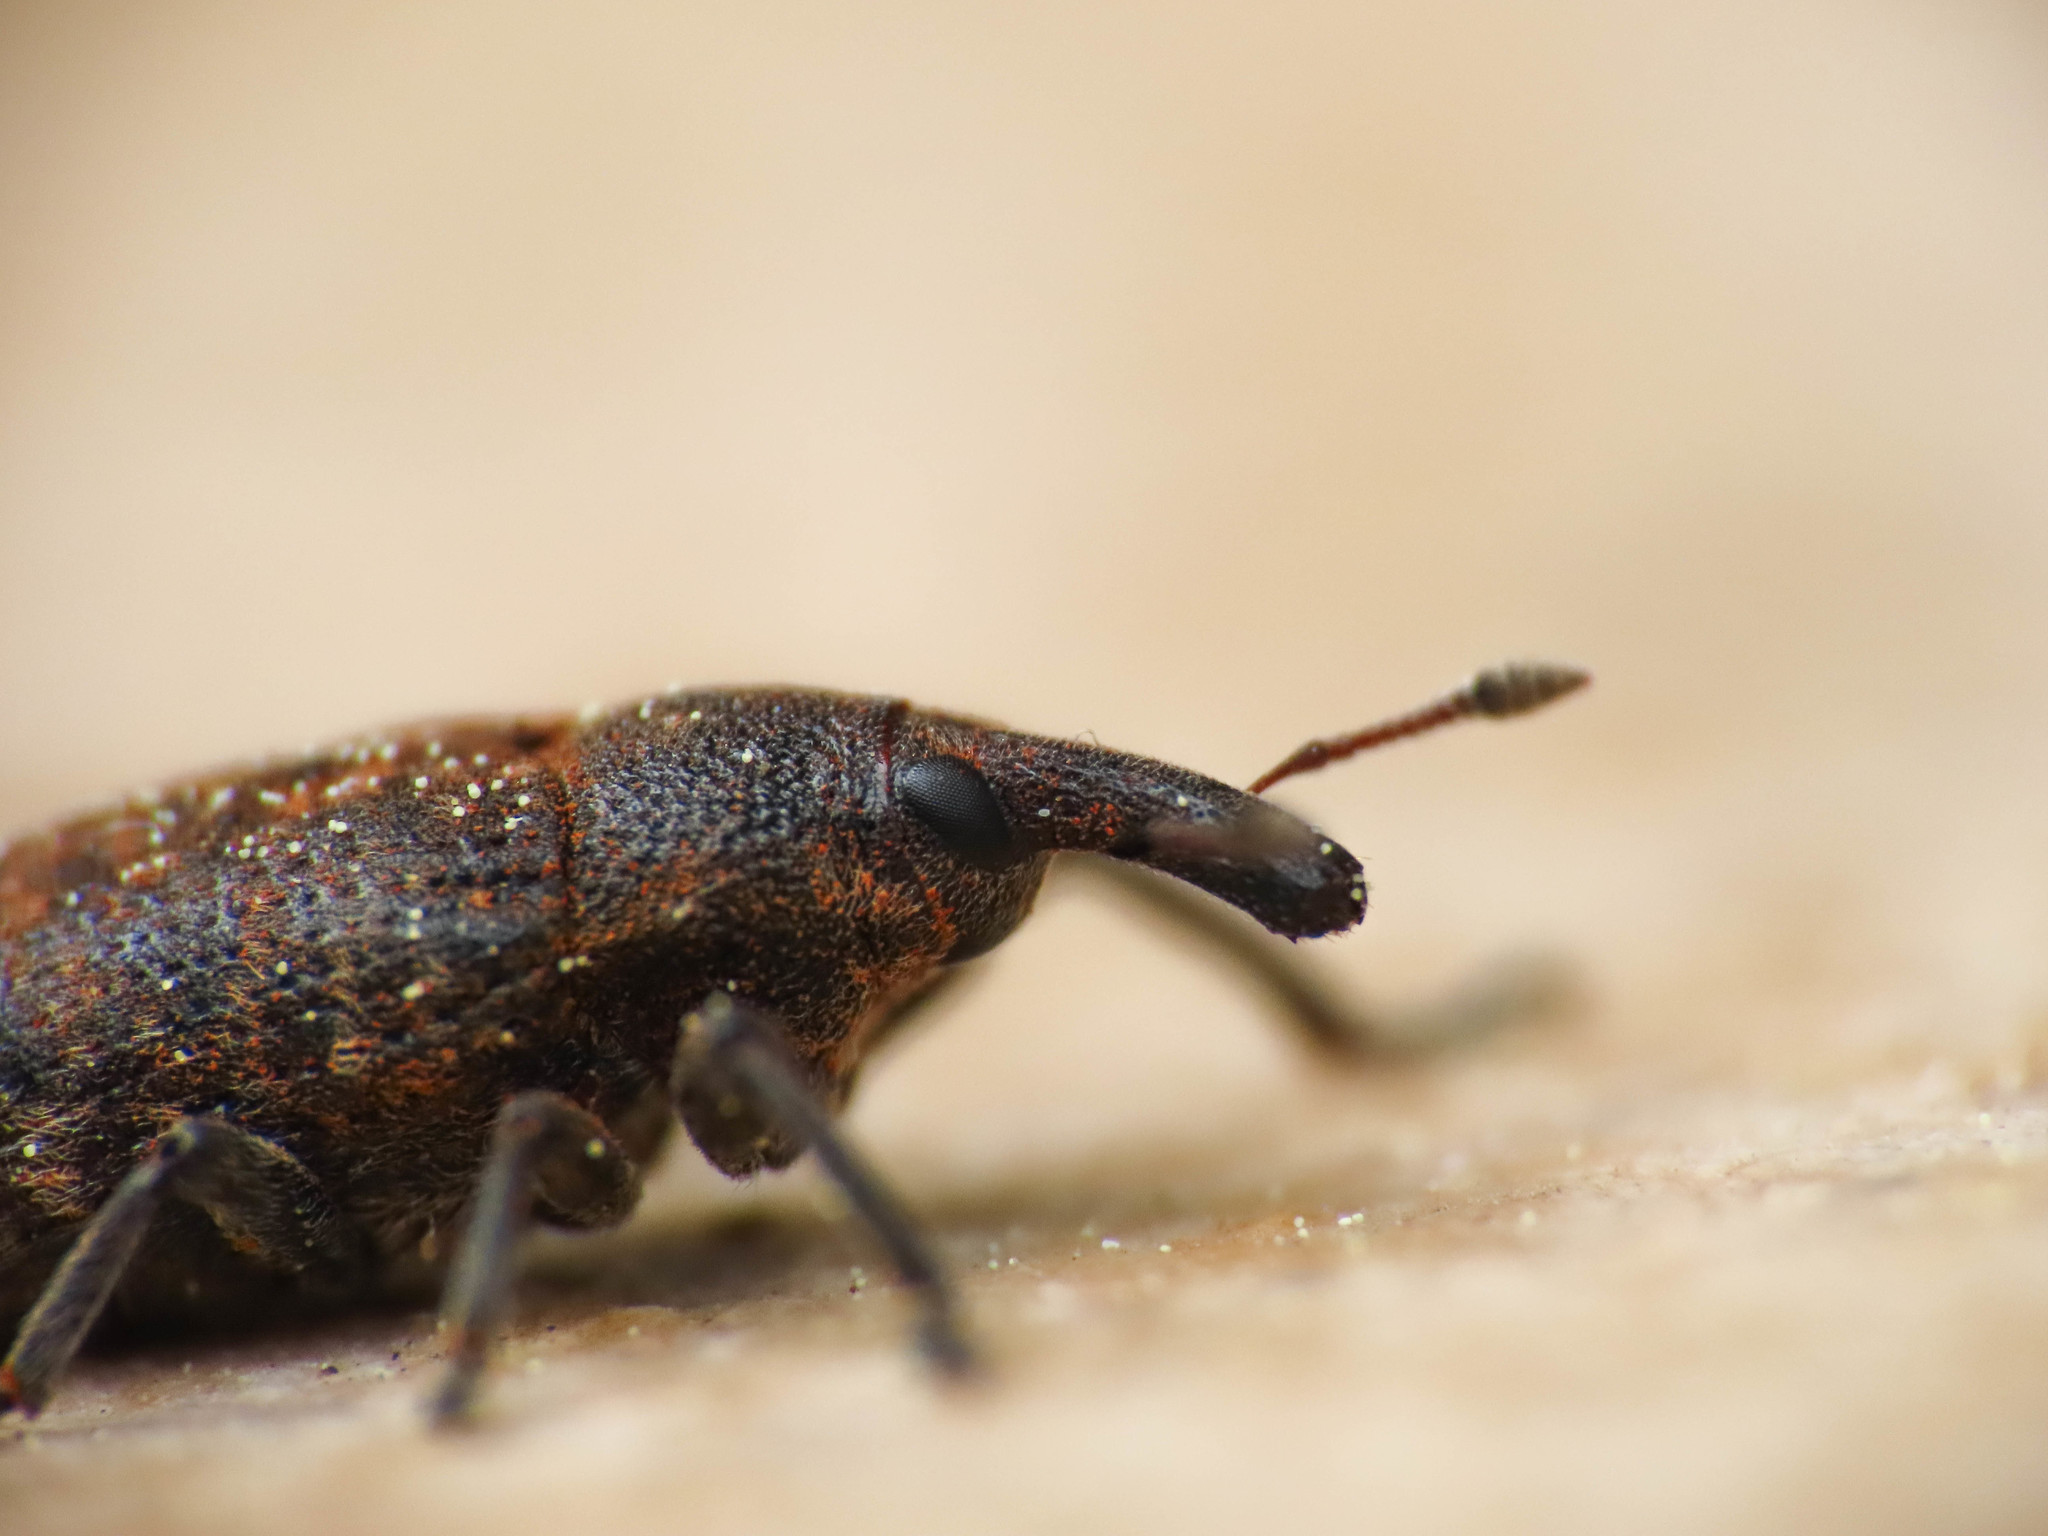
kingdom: Animalia
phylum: Arthropoda
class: Insecta
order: Coleoptera
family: Curculionidae
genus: Larinus
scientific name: Larinus carlinae
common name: Weevil
